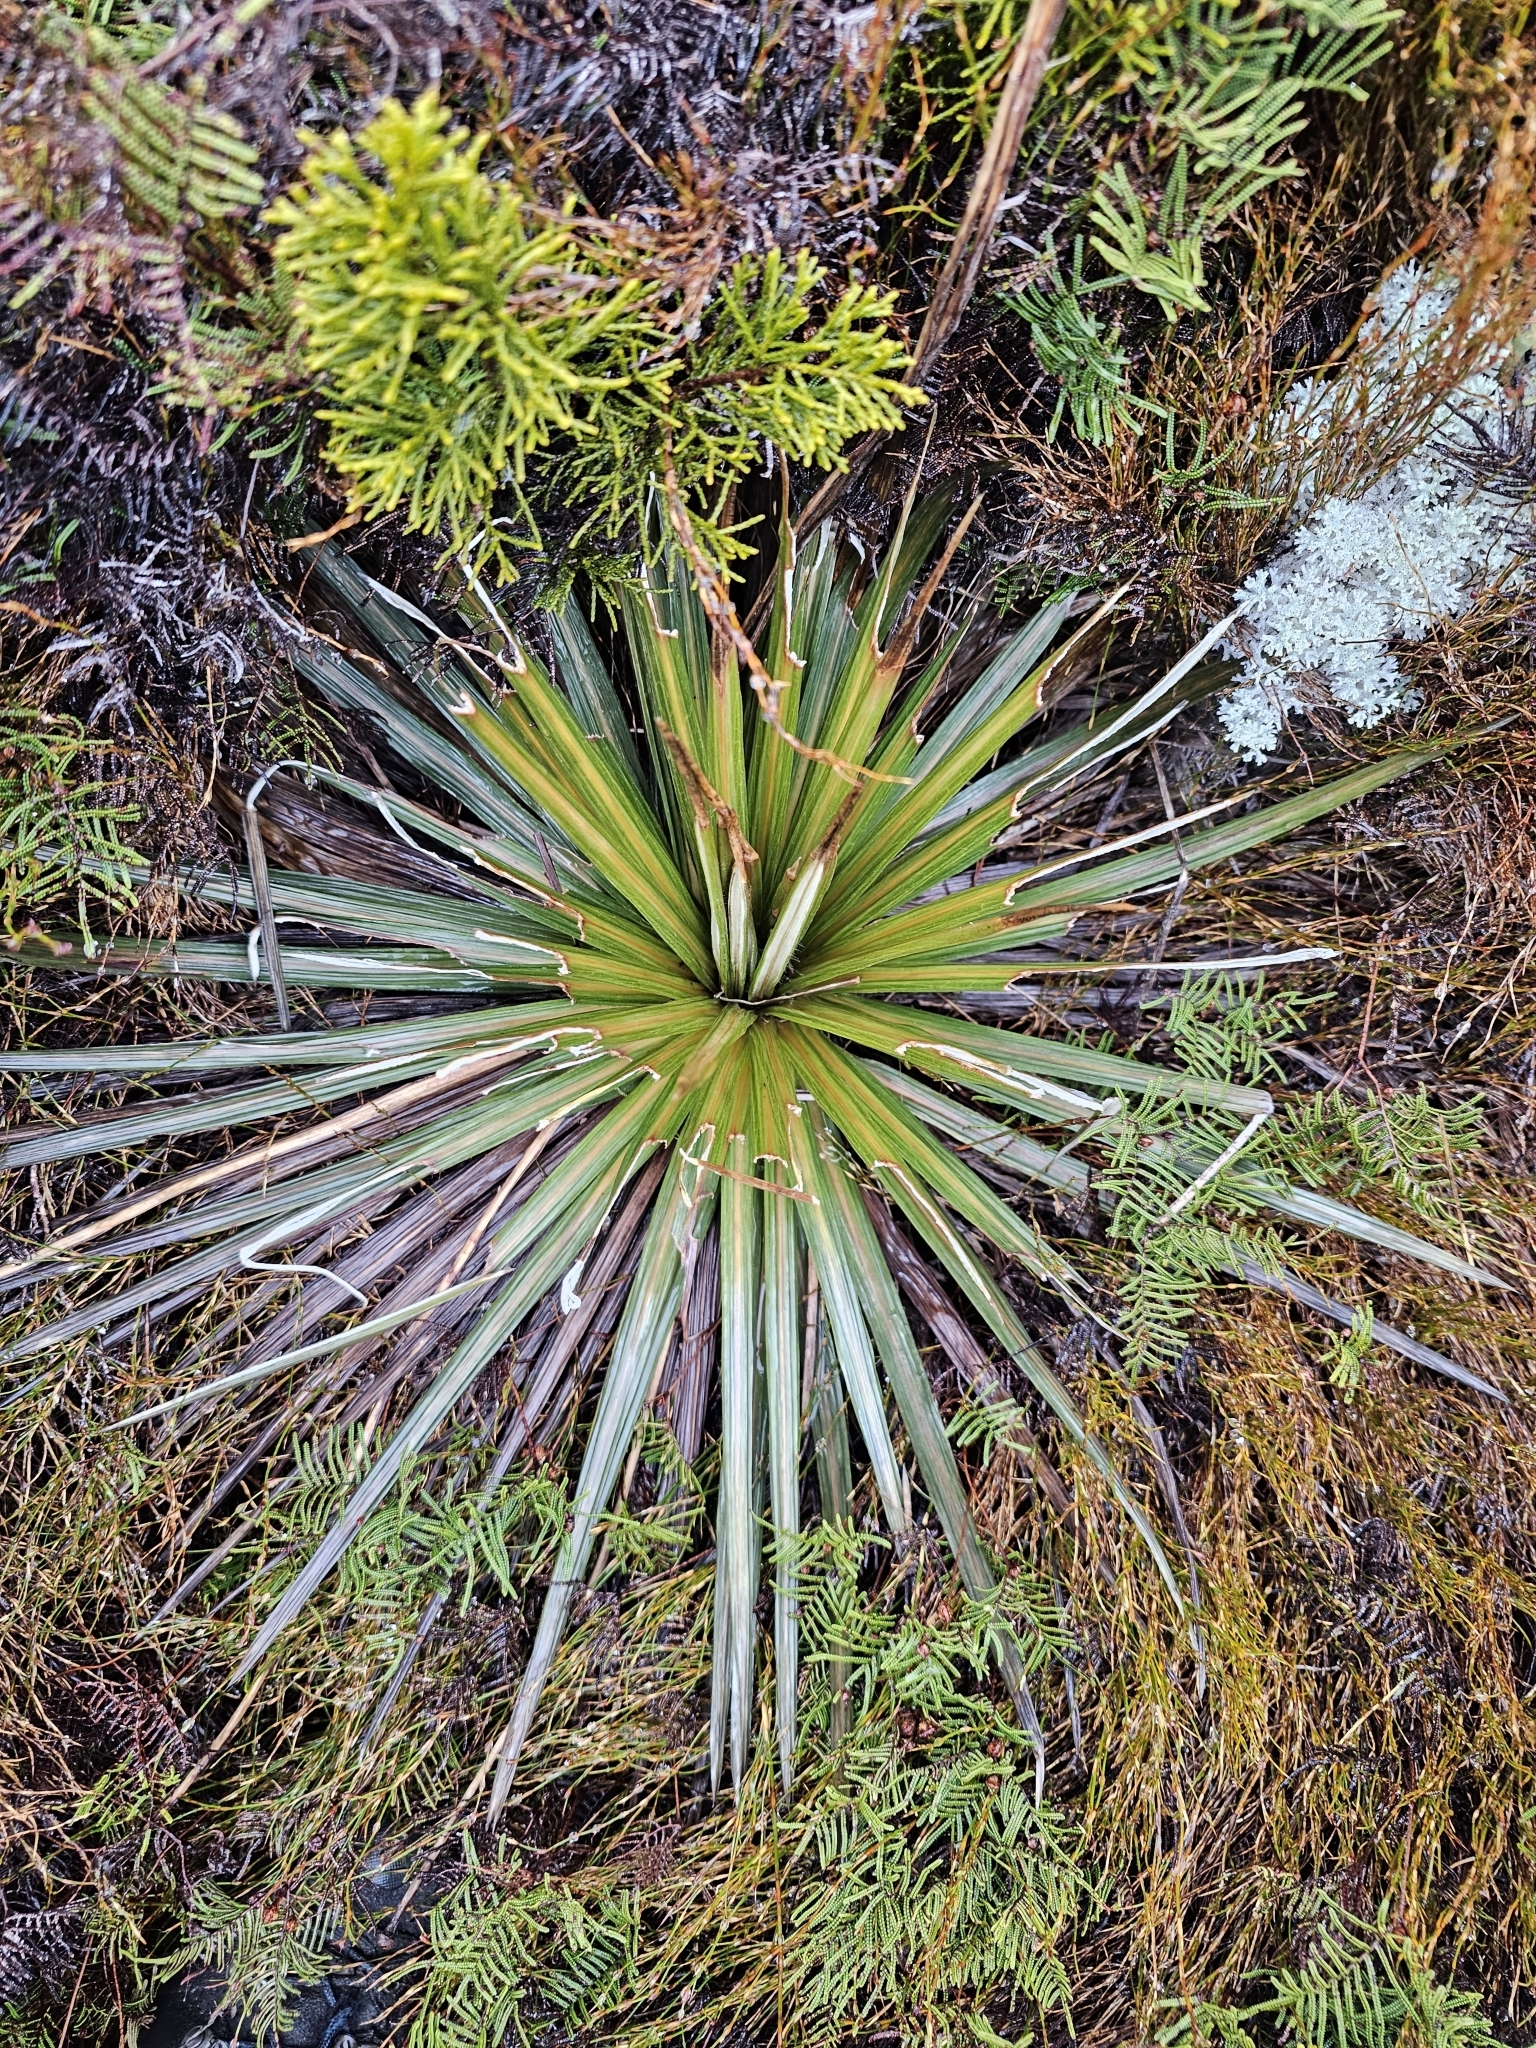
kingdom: Plantae
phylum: Tracheophyta
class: Magnoliopsida
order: Asterales
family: Asteraceae
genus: Celmisia
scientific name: Celmisia armstrongii
